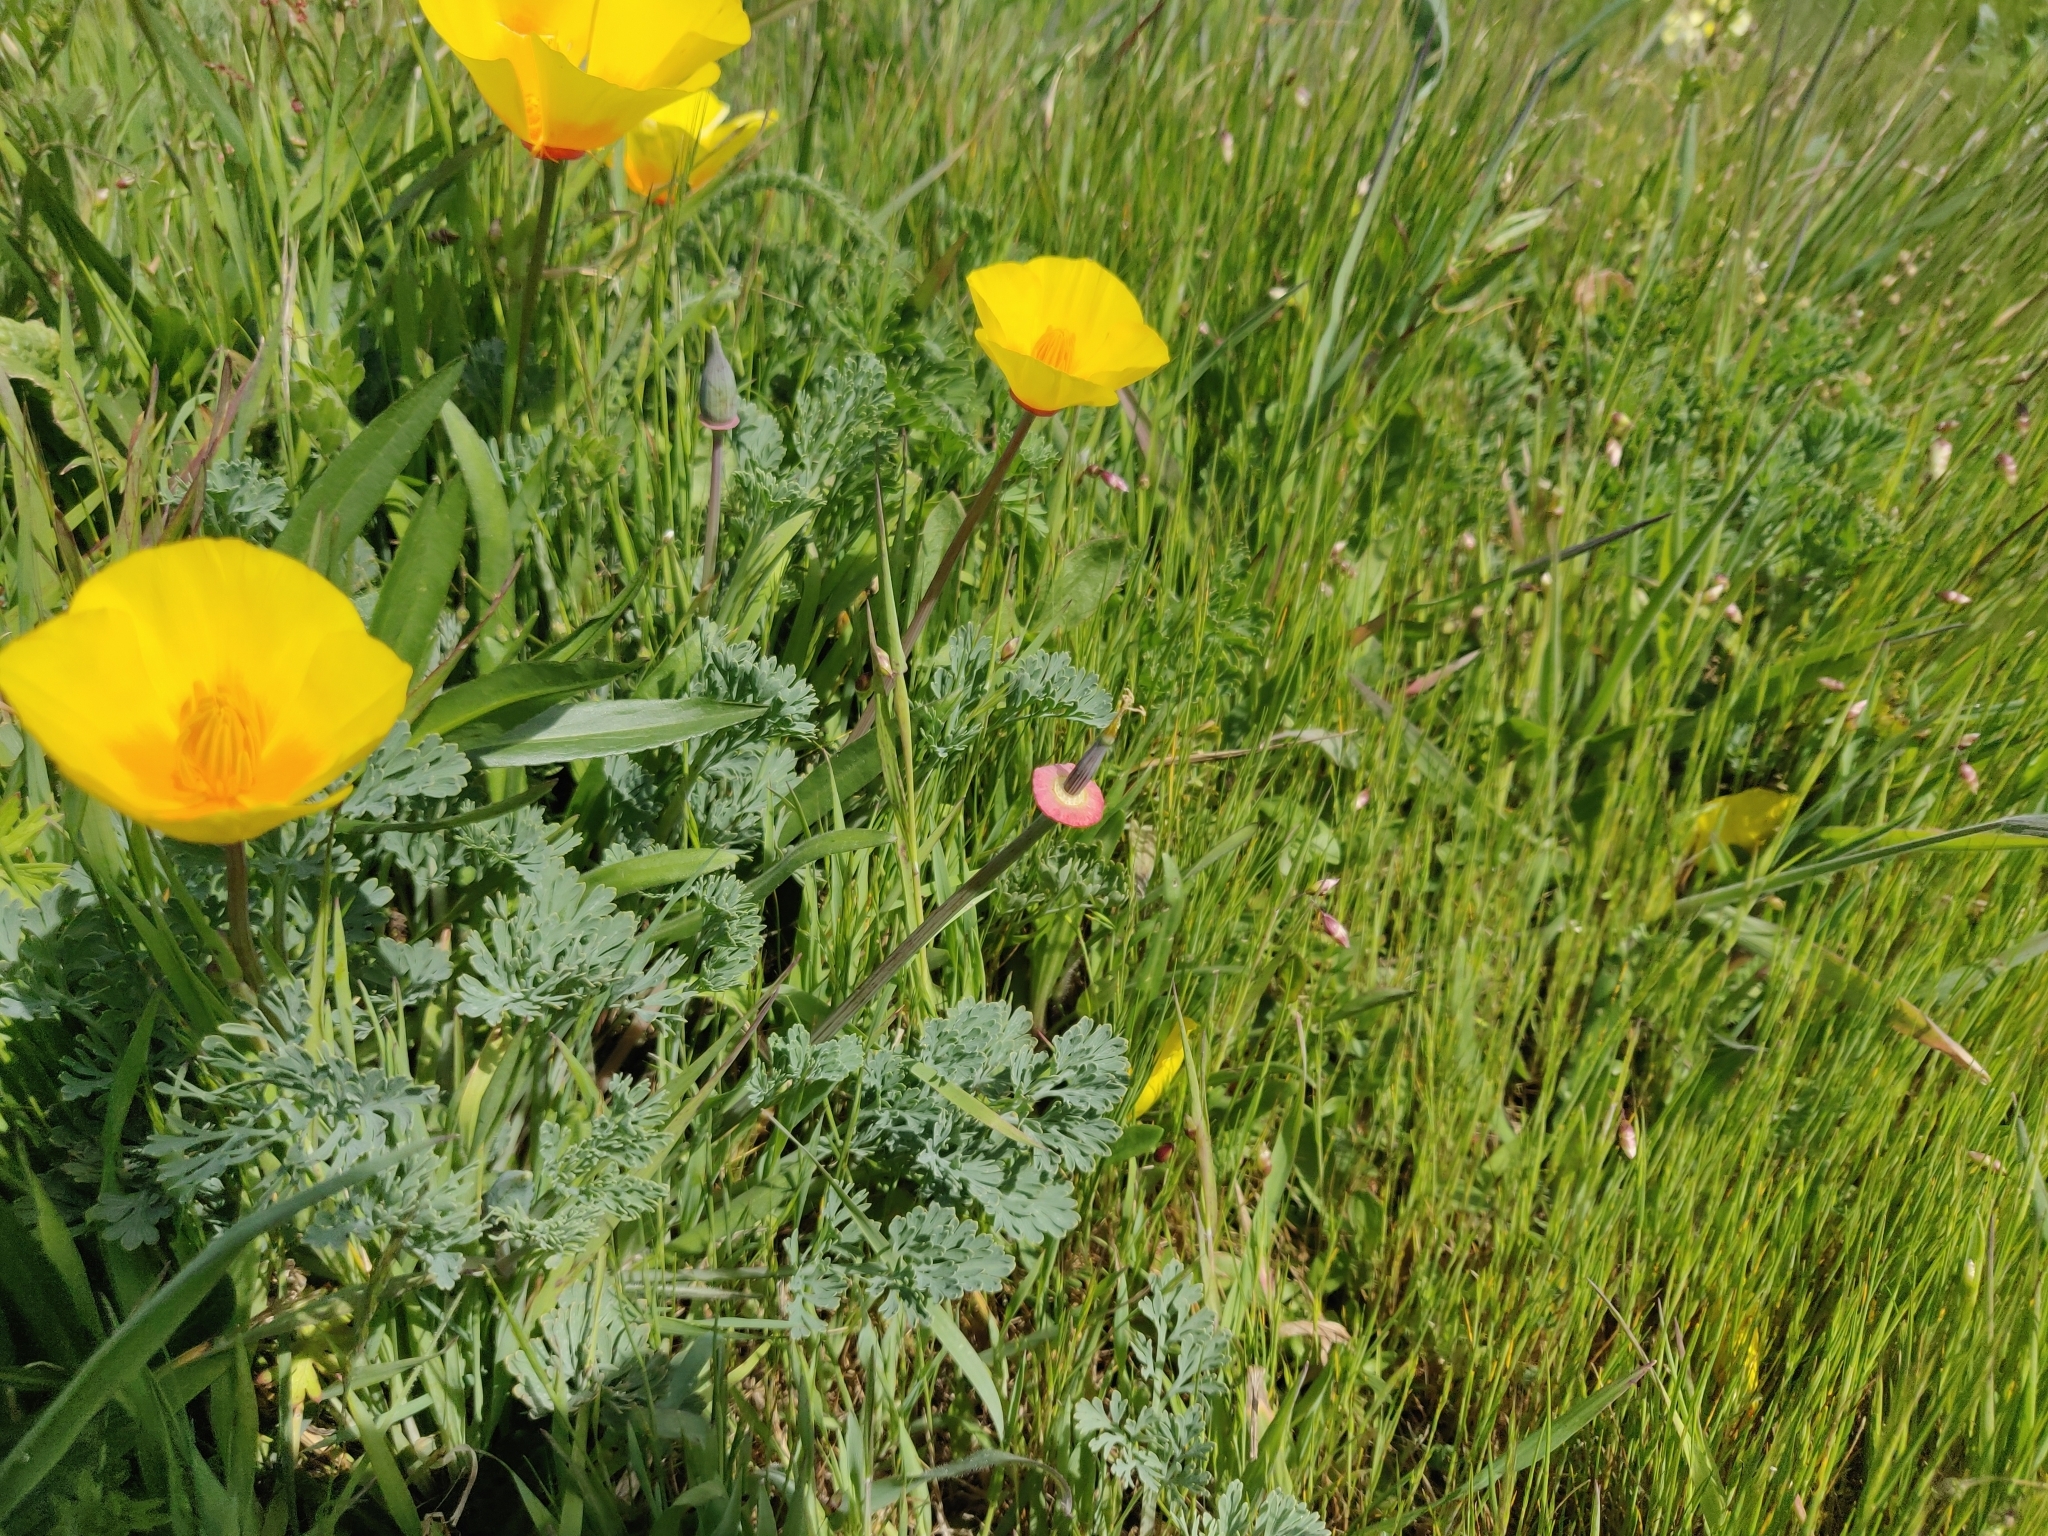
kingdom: Plantae
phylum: Tracheophyta
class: Magnoliopsida
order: Ranunculales
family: Papaveraceae
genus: Eschscholzia
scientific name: Eschscholzia californica
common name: California poppy
